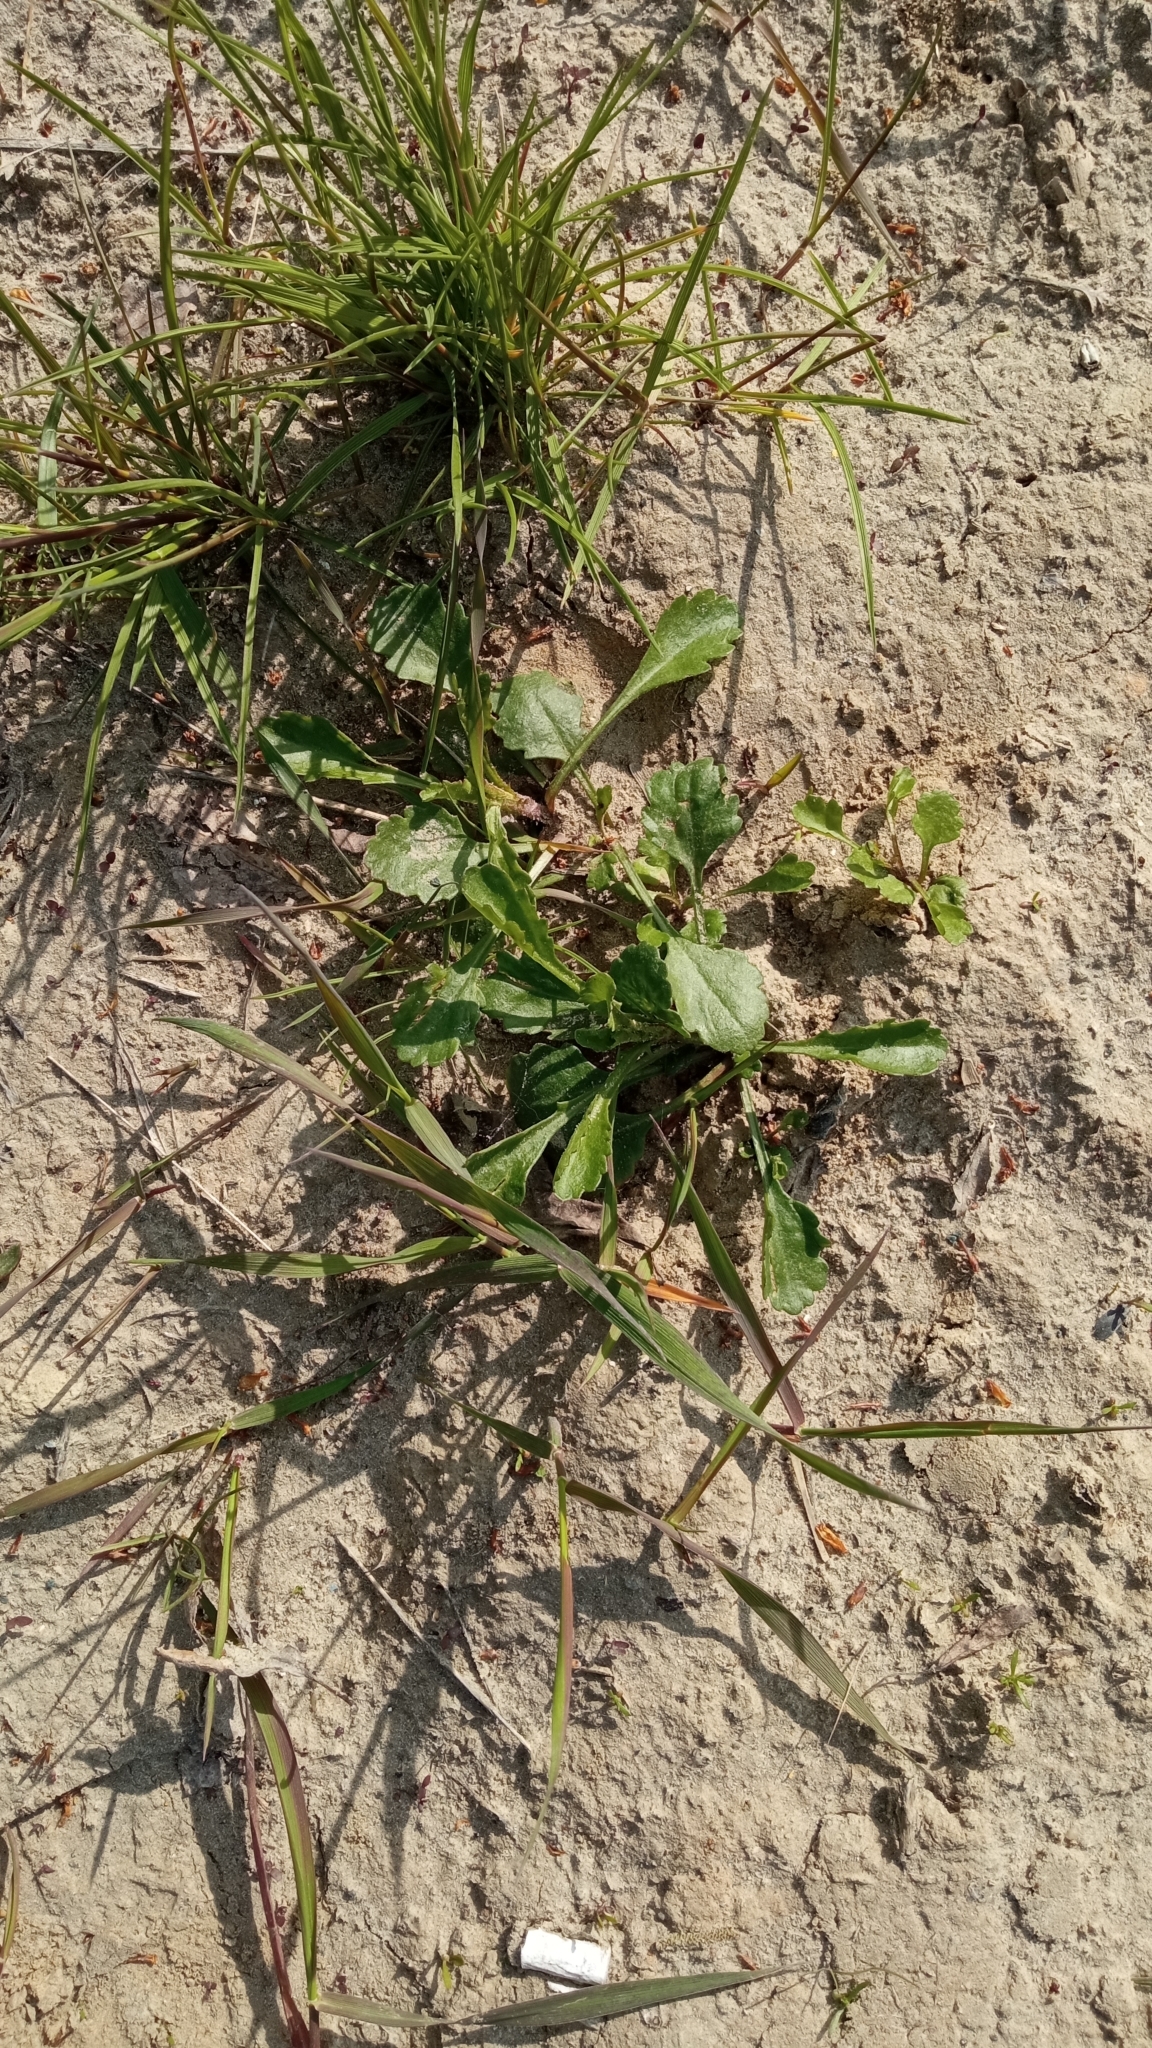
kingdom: Plantae
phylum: Tracheophyta
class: Magnoliopsida
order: Asterales
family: Asteraceae
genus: Leucanthemum
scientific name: Leucanthemum ircutianum
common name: Daisy
